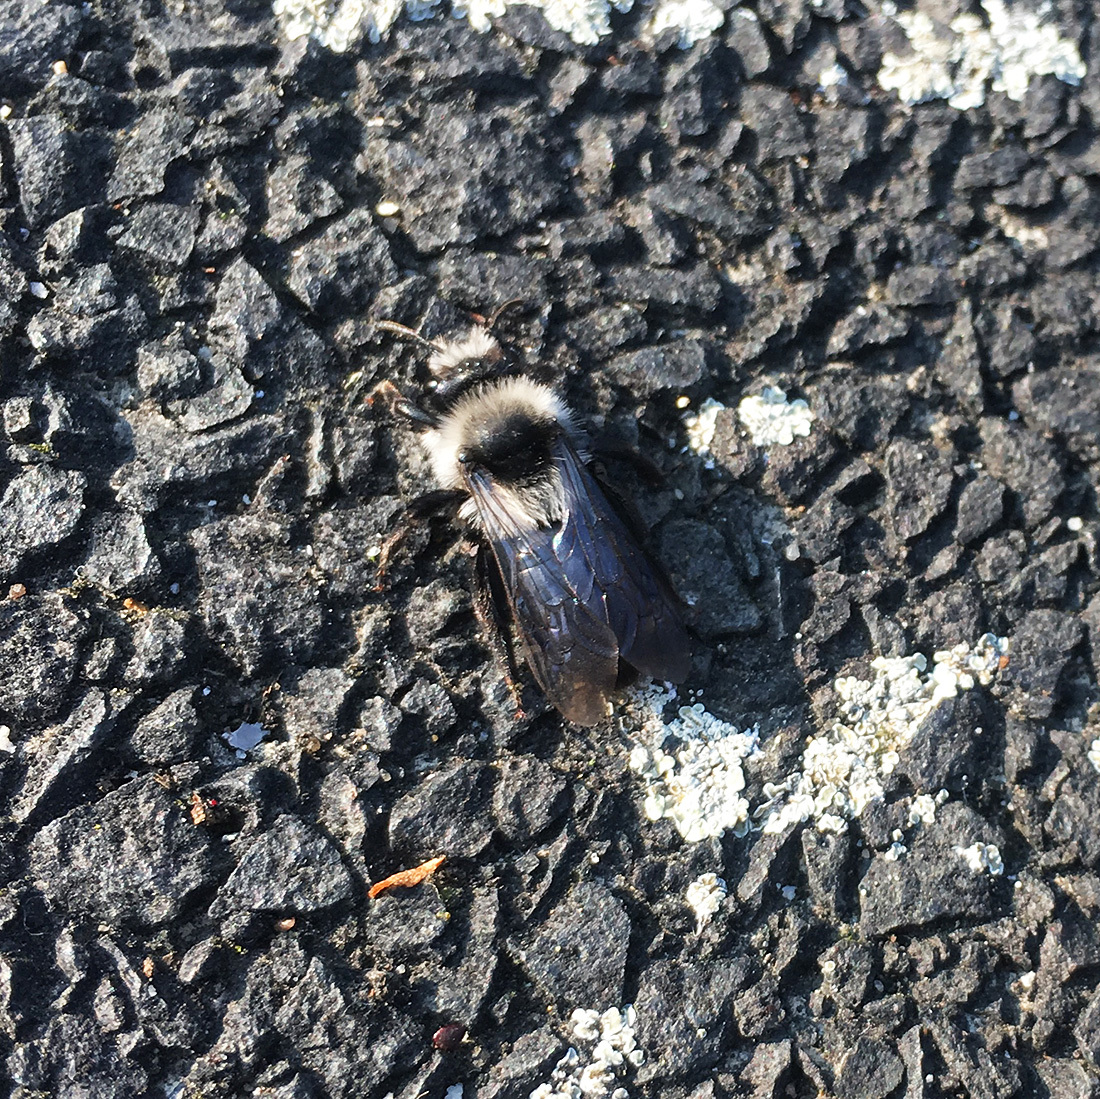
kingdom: Animalia
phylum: Arthropoda
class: Insecta
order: Hymenoptera
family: Andrenidae
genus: Andrena
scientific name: Andrena cineraria
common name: Ashy mining bee
